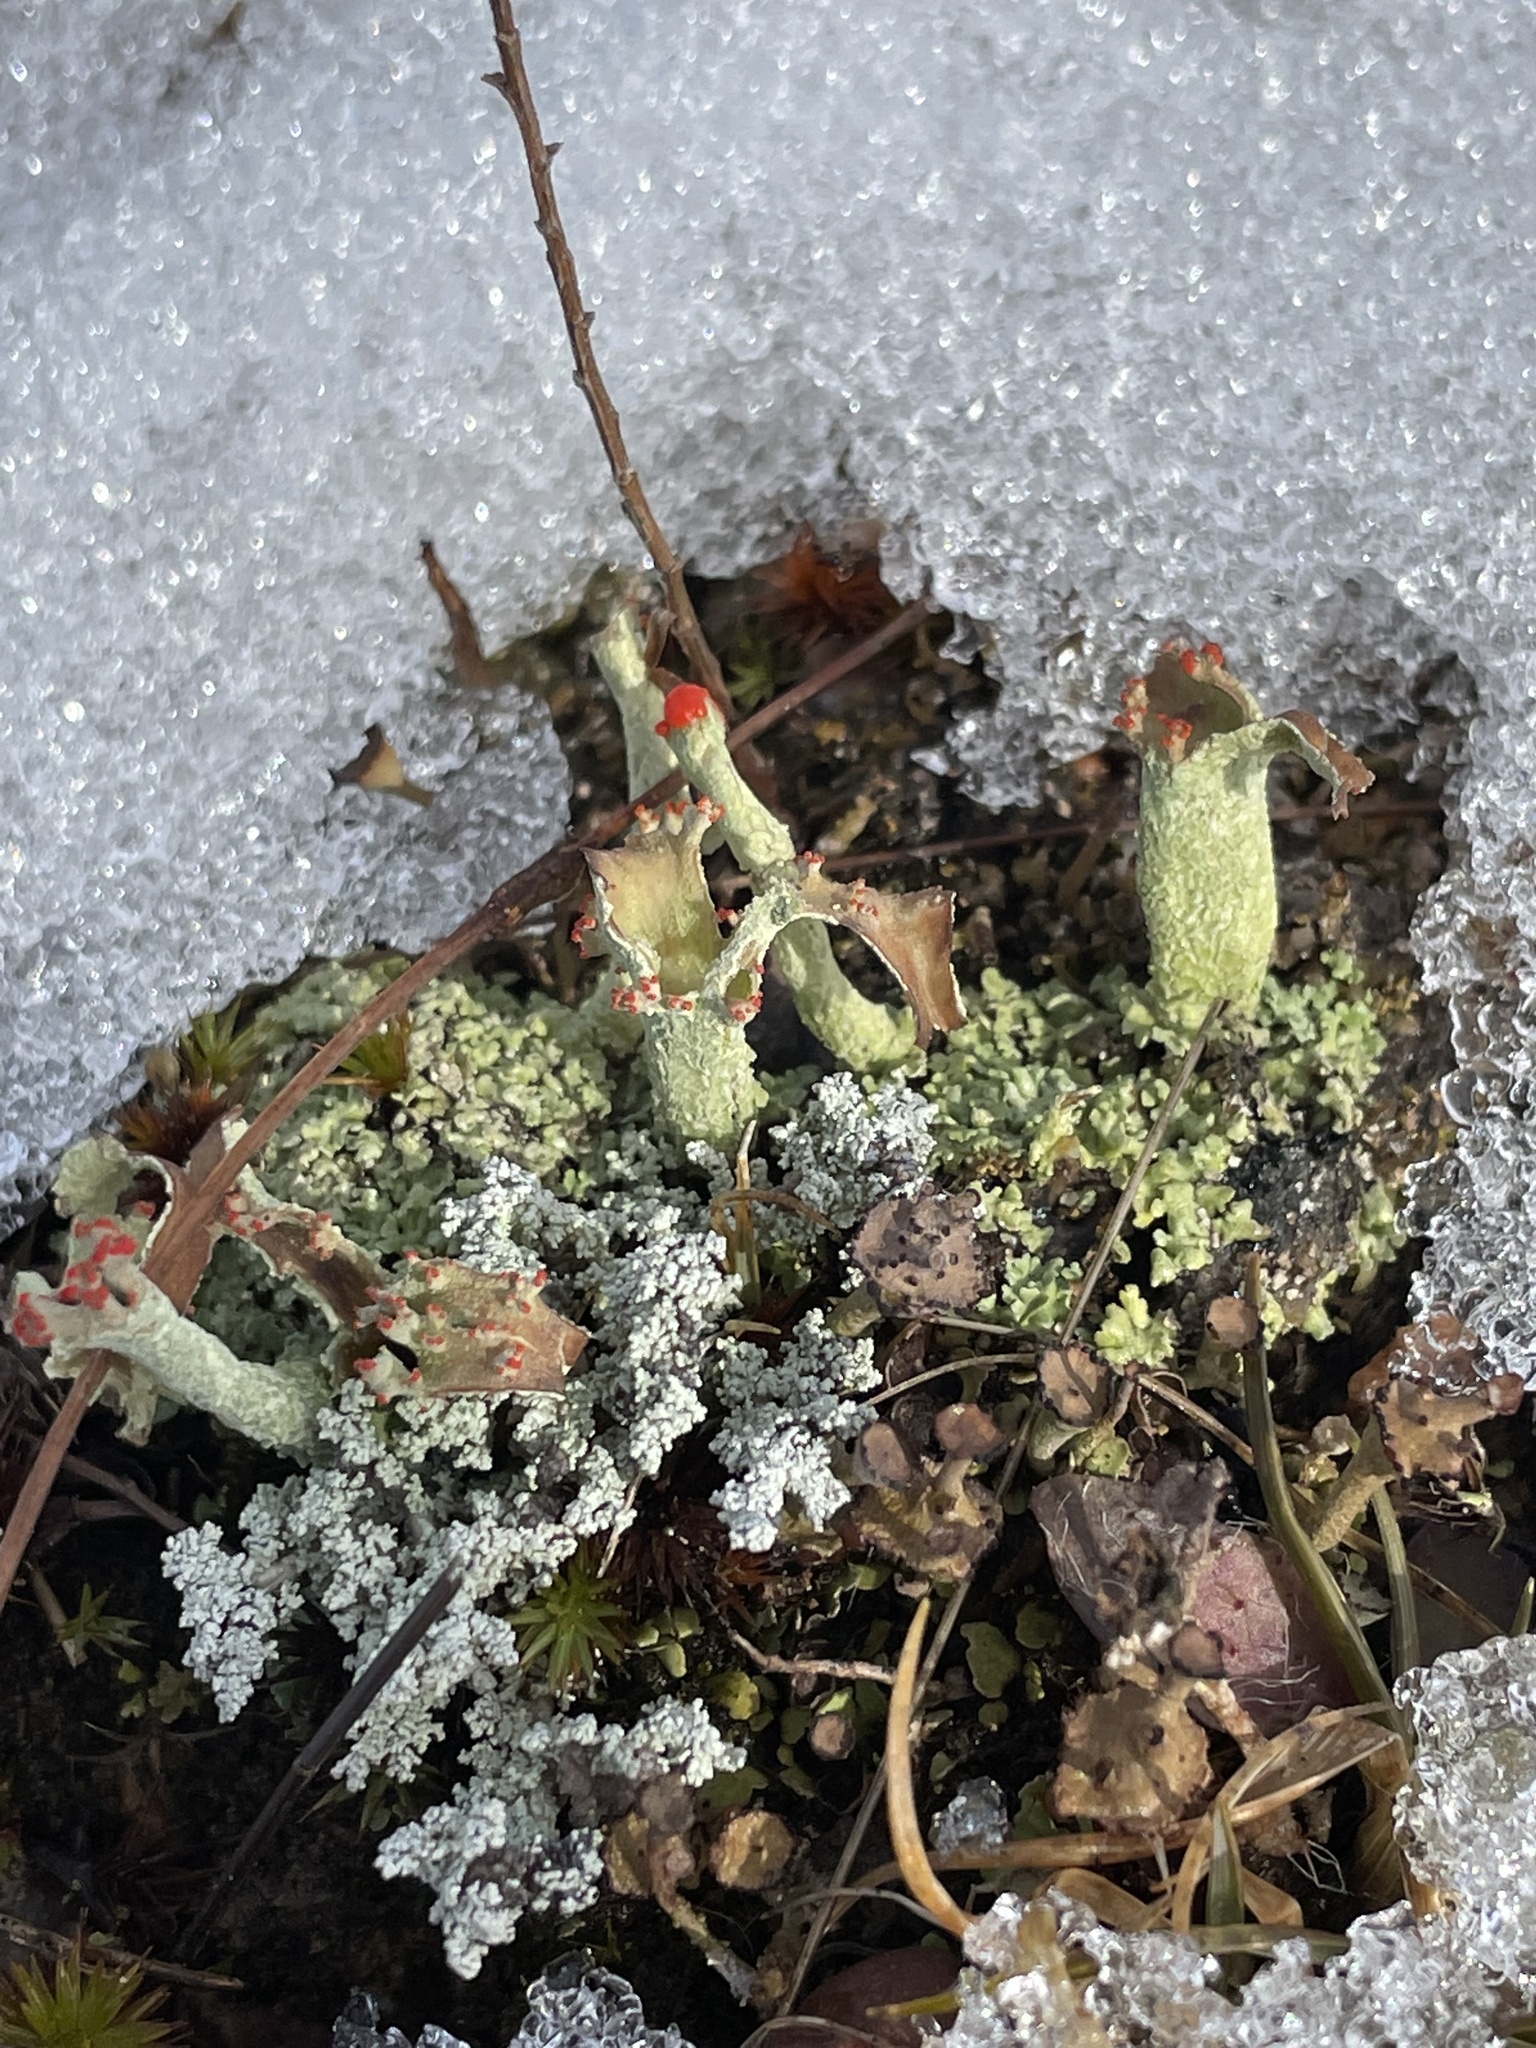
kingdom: Fungi
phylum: Ascomycota
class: Lecanoromycetes
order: Lecanorales
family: Cladoniaceae
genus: Cladonia
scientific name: Cladonia cristatella
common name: British soldier lichen
